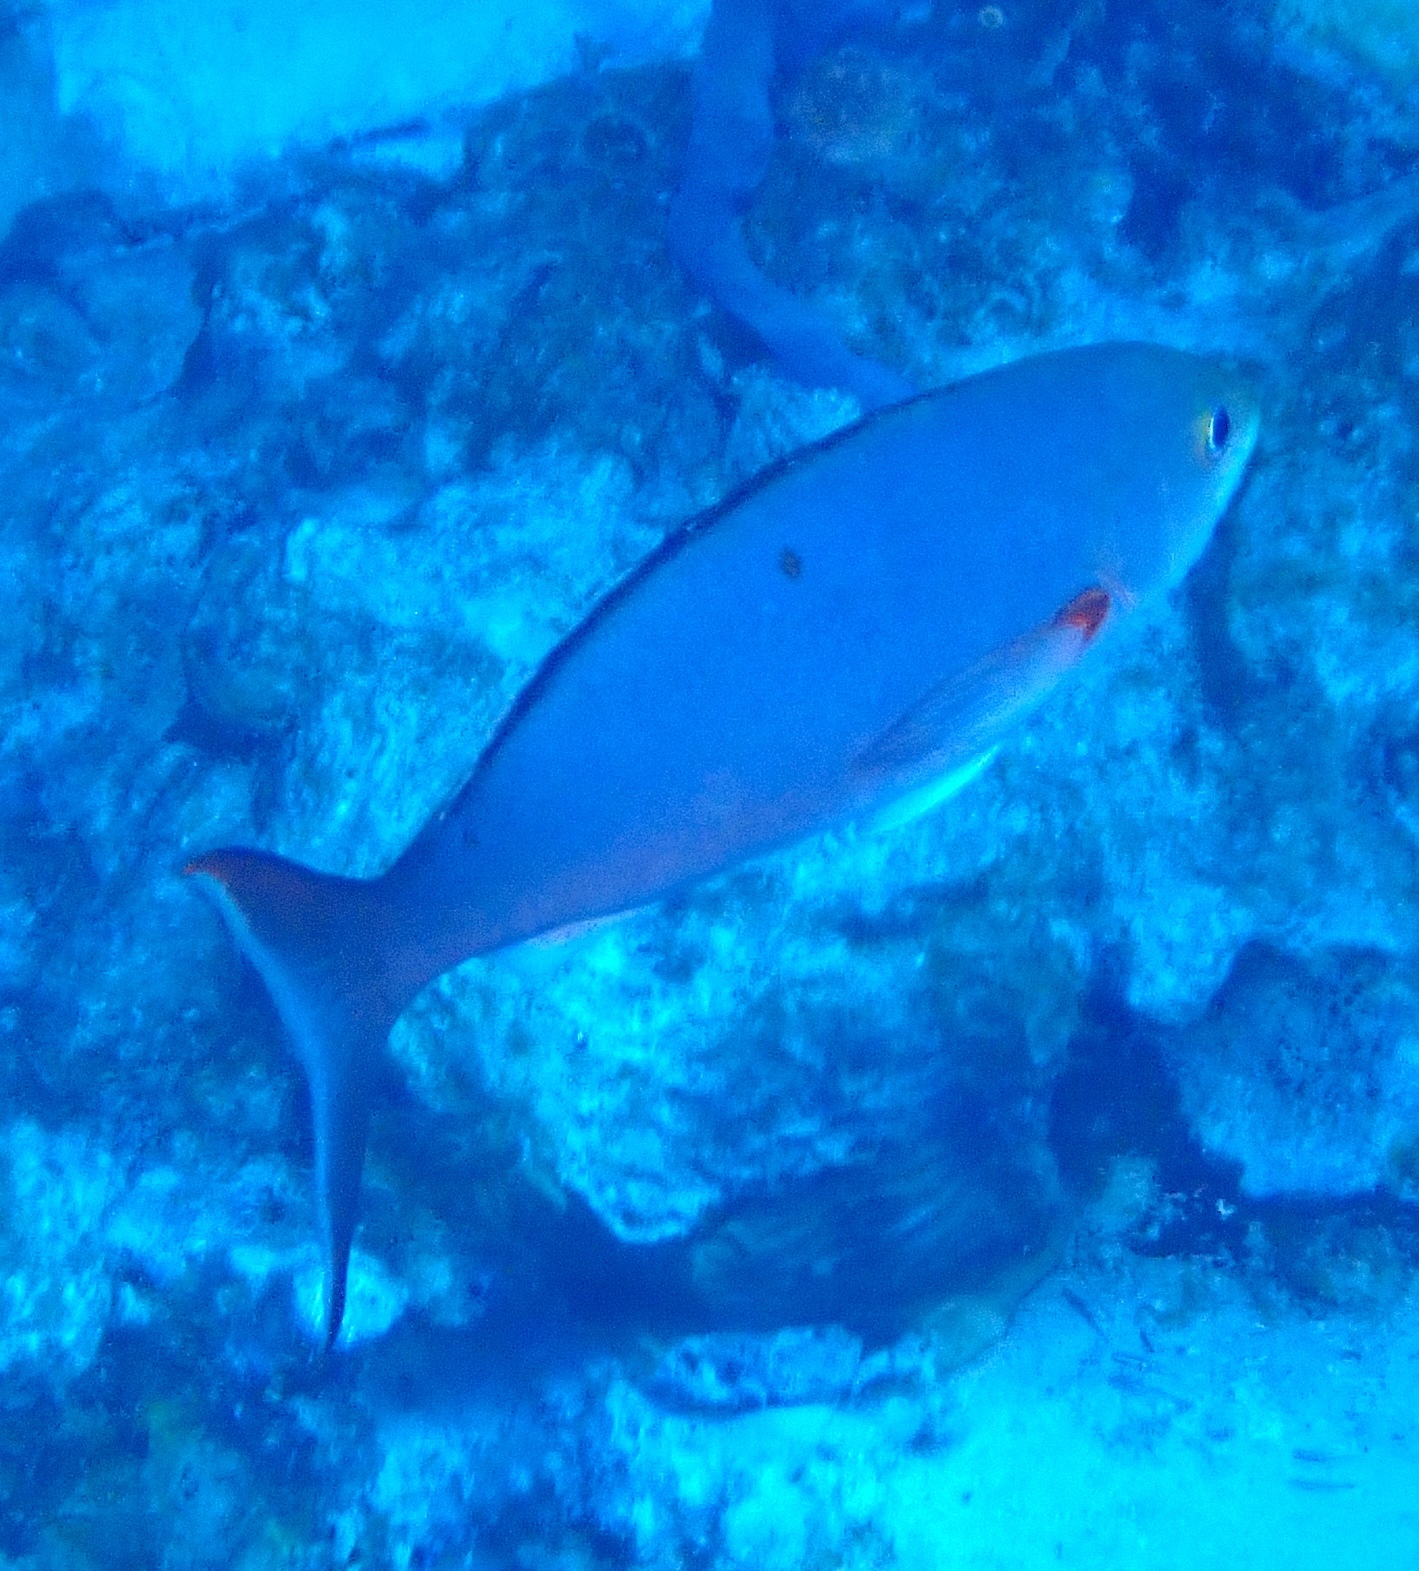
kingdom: Animalia
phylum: Chordata
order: Perciformes
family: Serranidae
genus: Paranthias
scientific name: Paranthias furcifer
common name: Creole-fish
